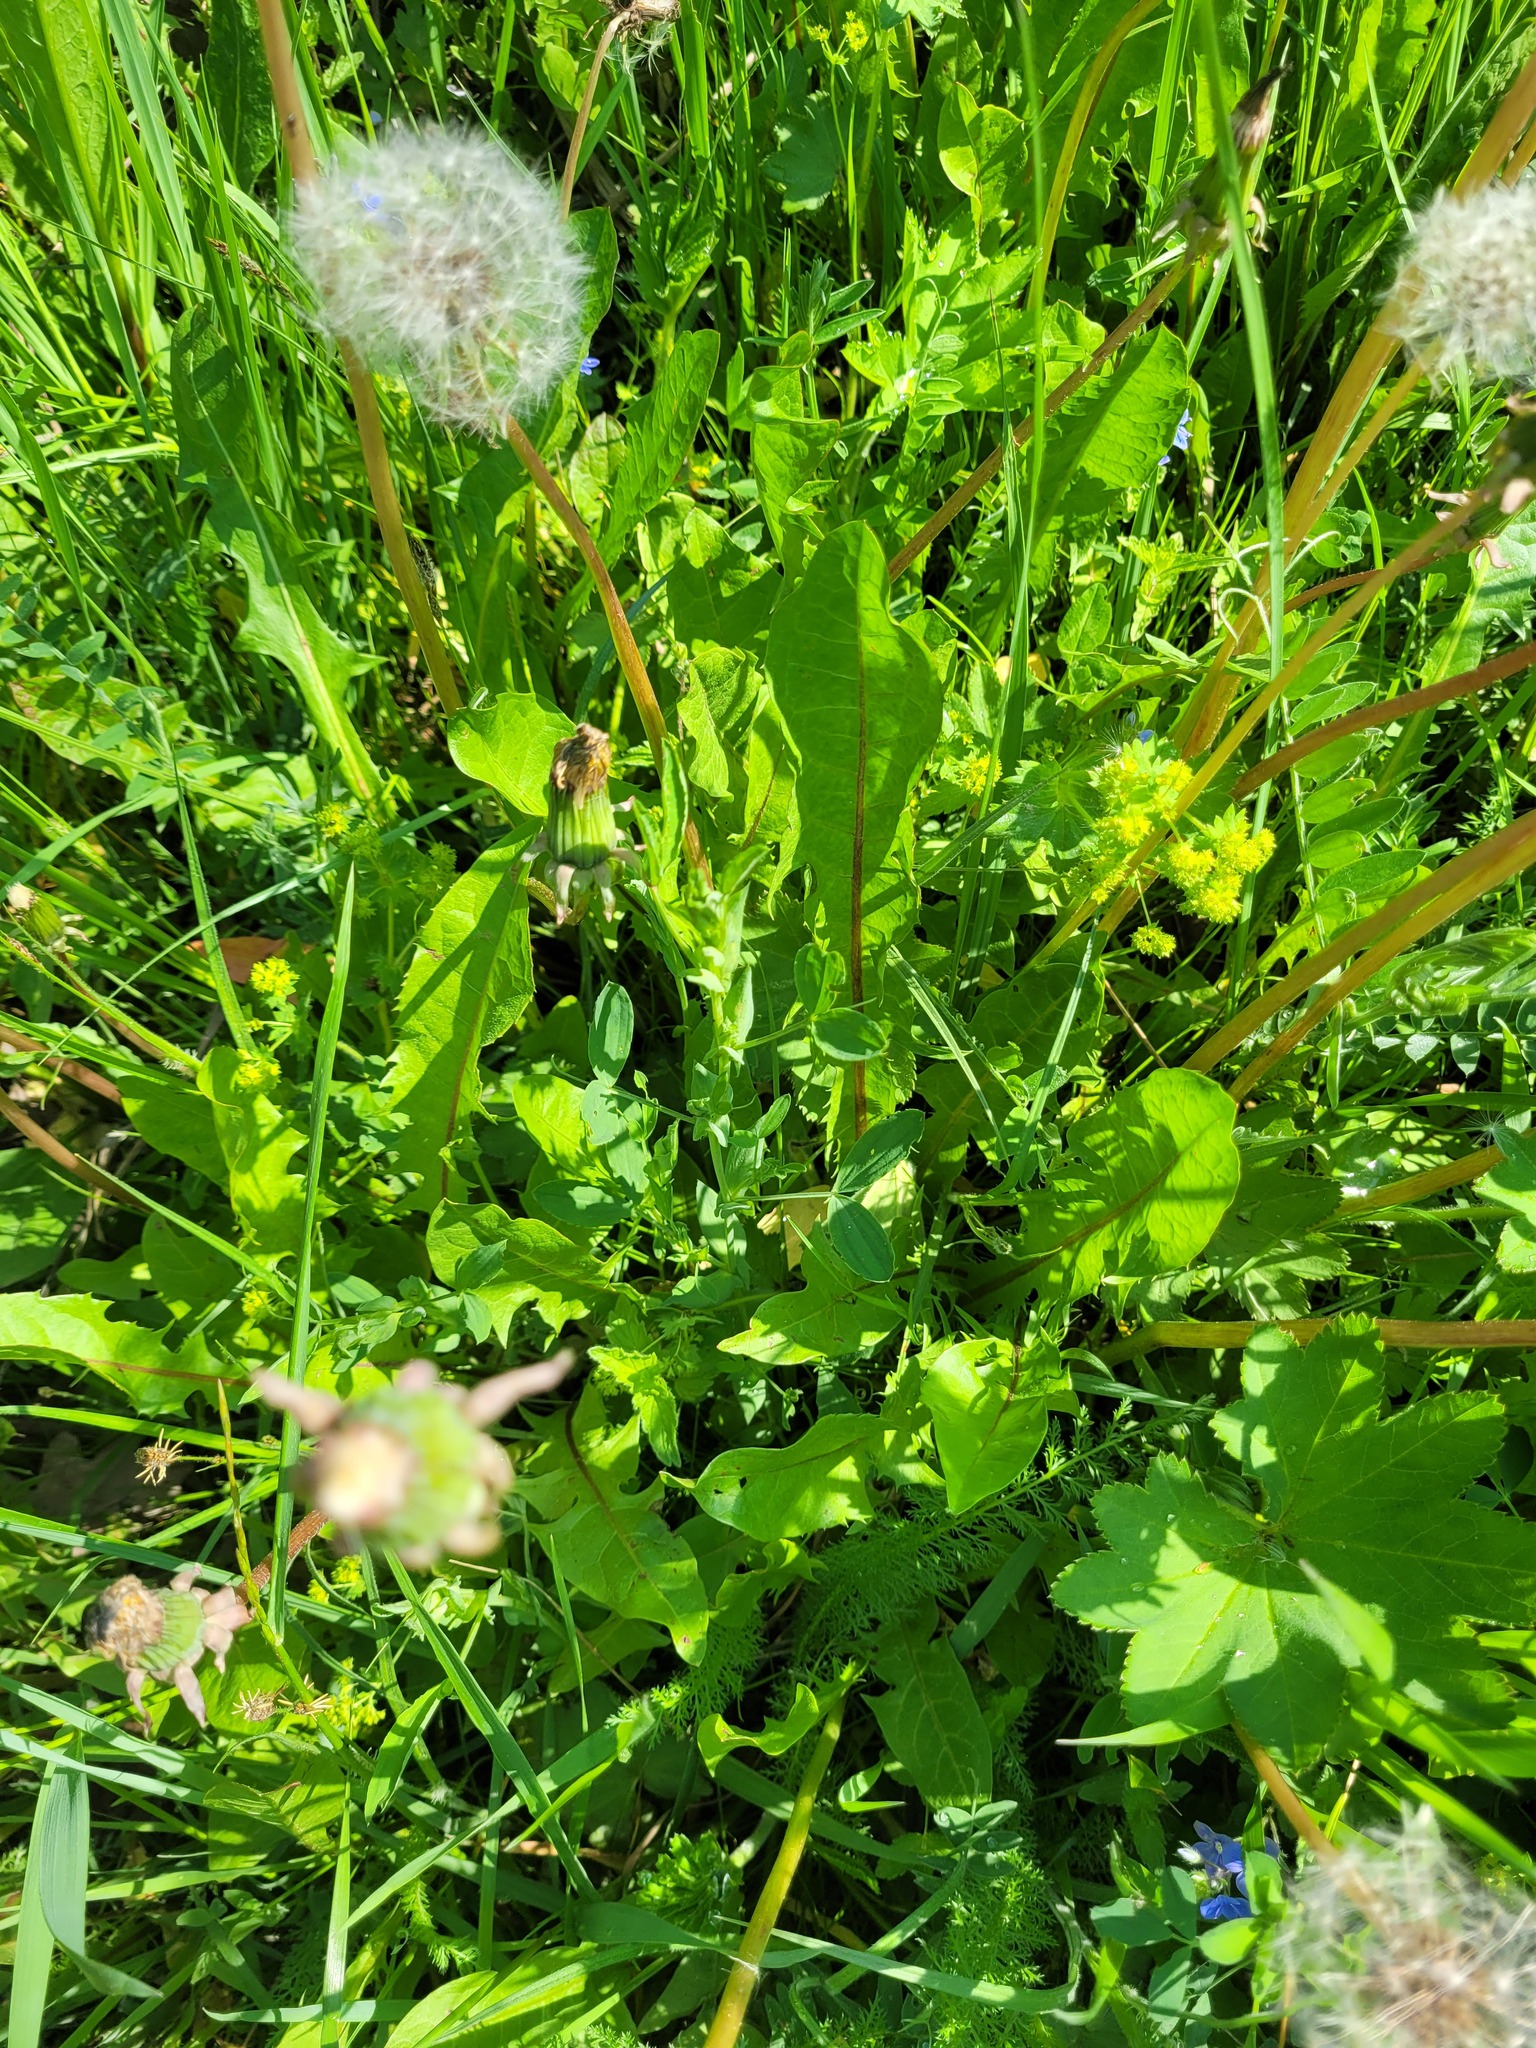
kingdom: Plantae
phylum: Tracheophyta
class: Magnoliopsida
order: Fabales
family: Fabaceae
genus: Lathyrus
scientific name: Lathyrus pratensis
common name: Meadow vetchling
